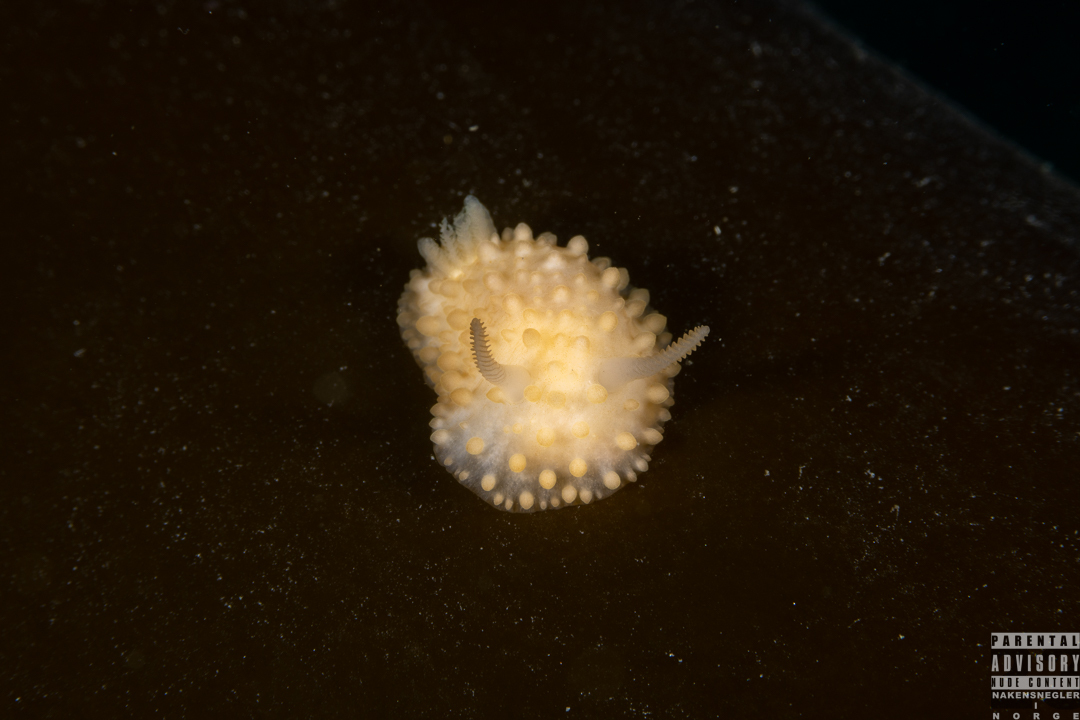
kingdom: Animalia
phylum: Mollusca
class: Gastropoda
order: Nudibranchia
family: Onchidorididae
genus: Adalaria
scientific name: Adalaria proxima
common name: False doris
